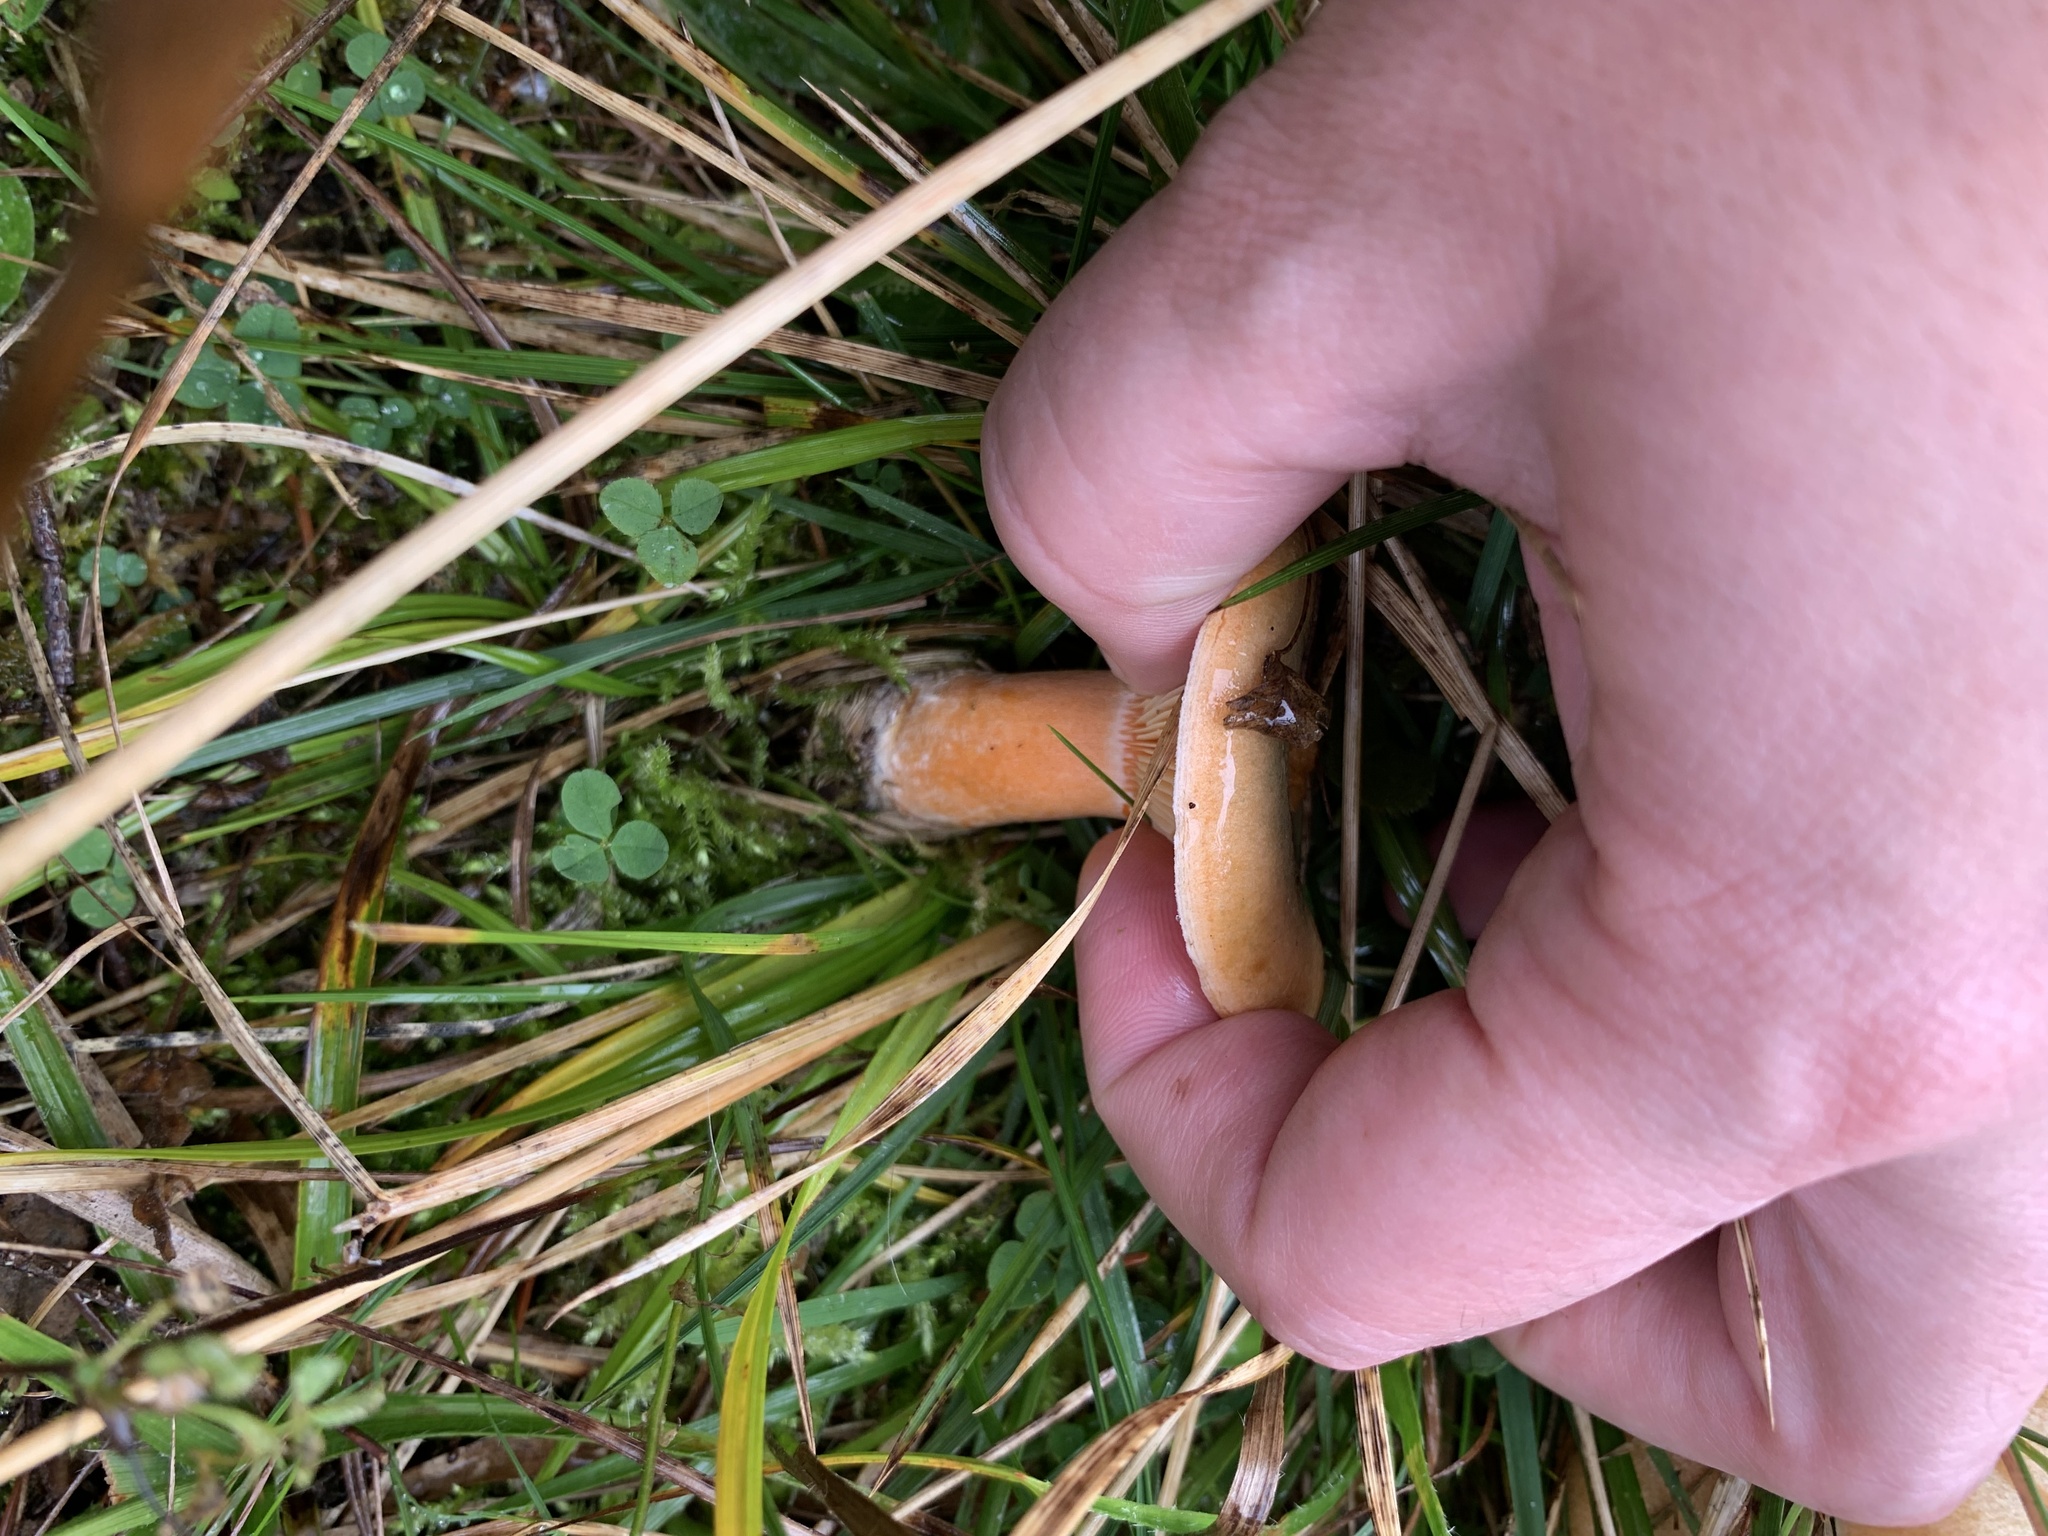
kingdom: Fungi
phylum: Basidiomycota
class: Agaricomycetes
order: Russulales
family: Russulaceae
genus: Lactarius
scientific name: Lactarius deterrimus
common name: False saffron milkcap
